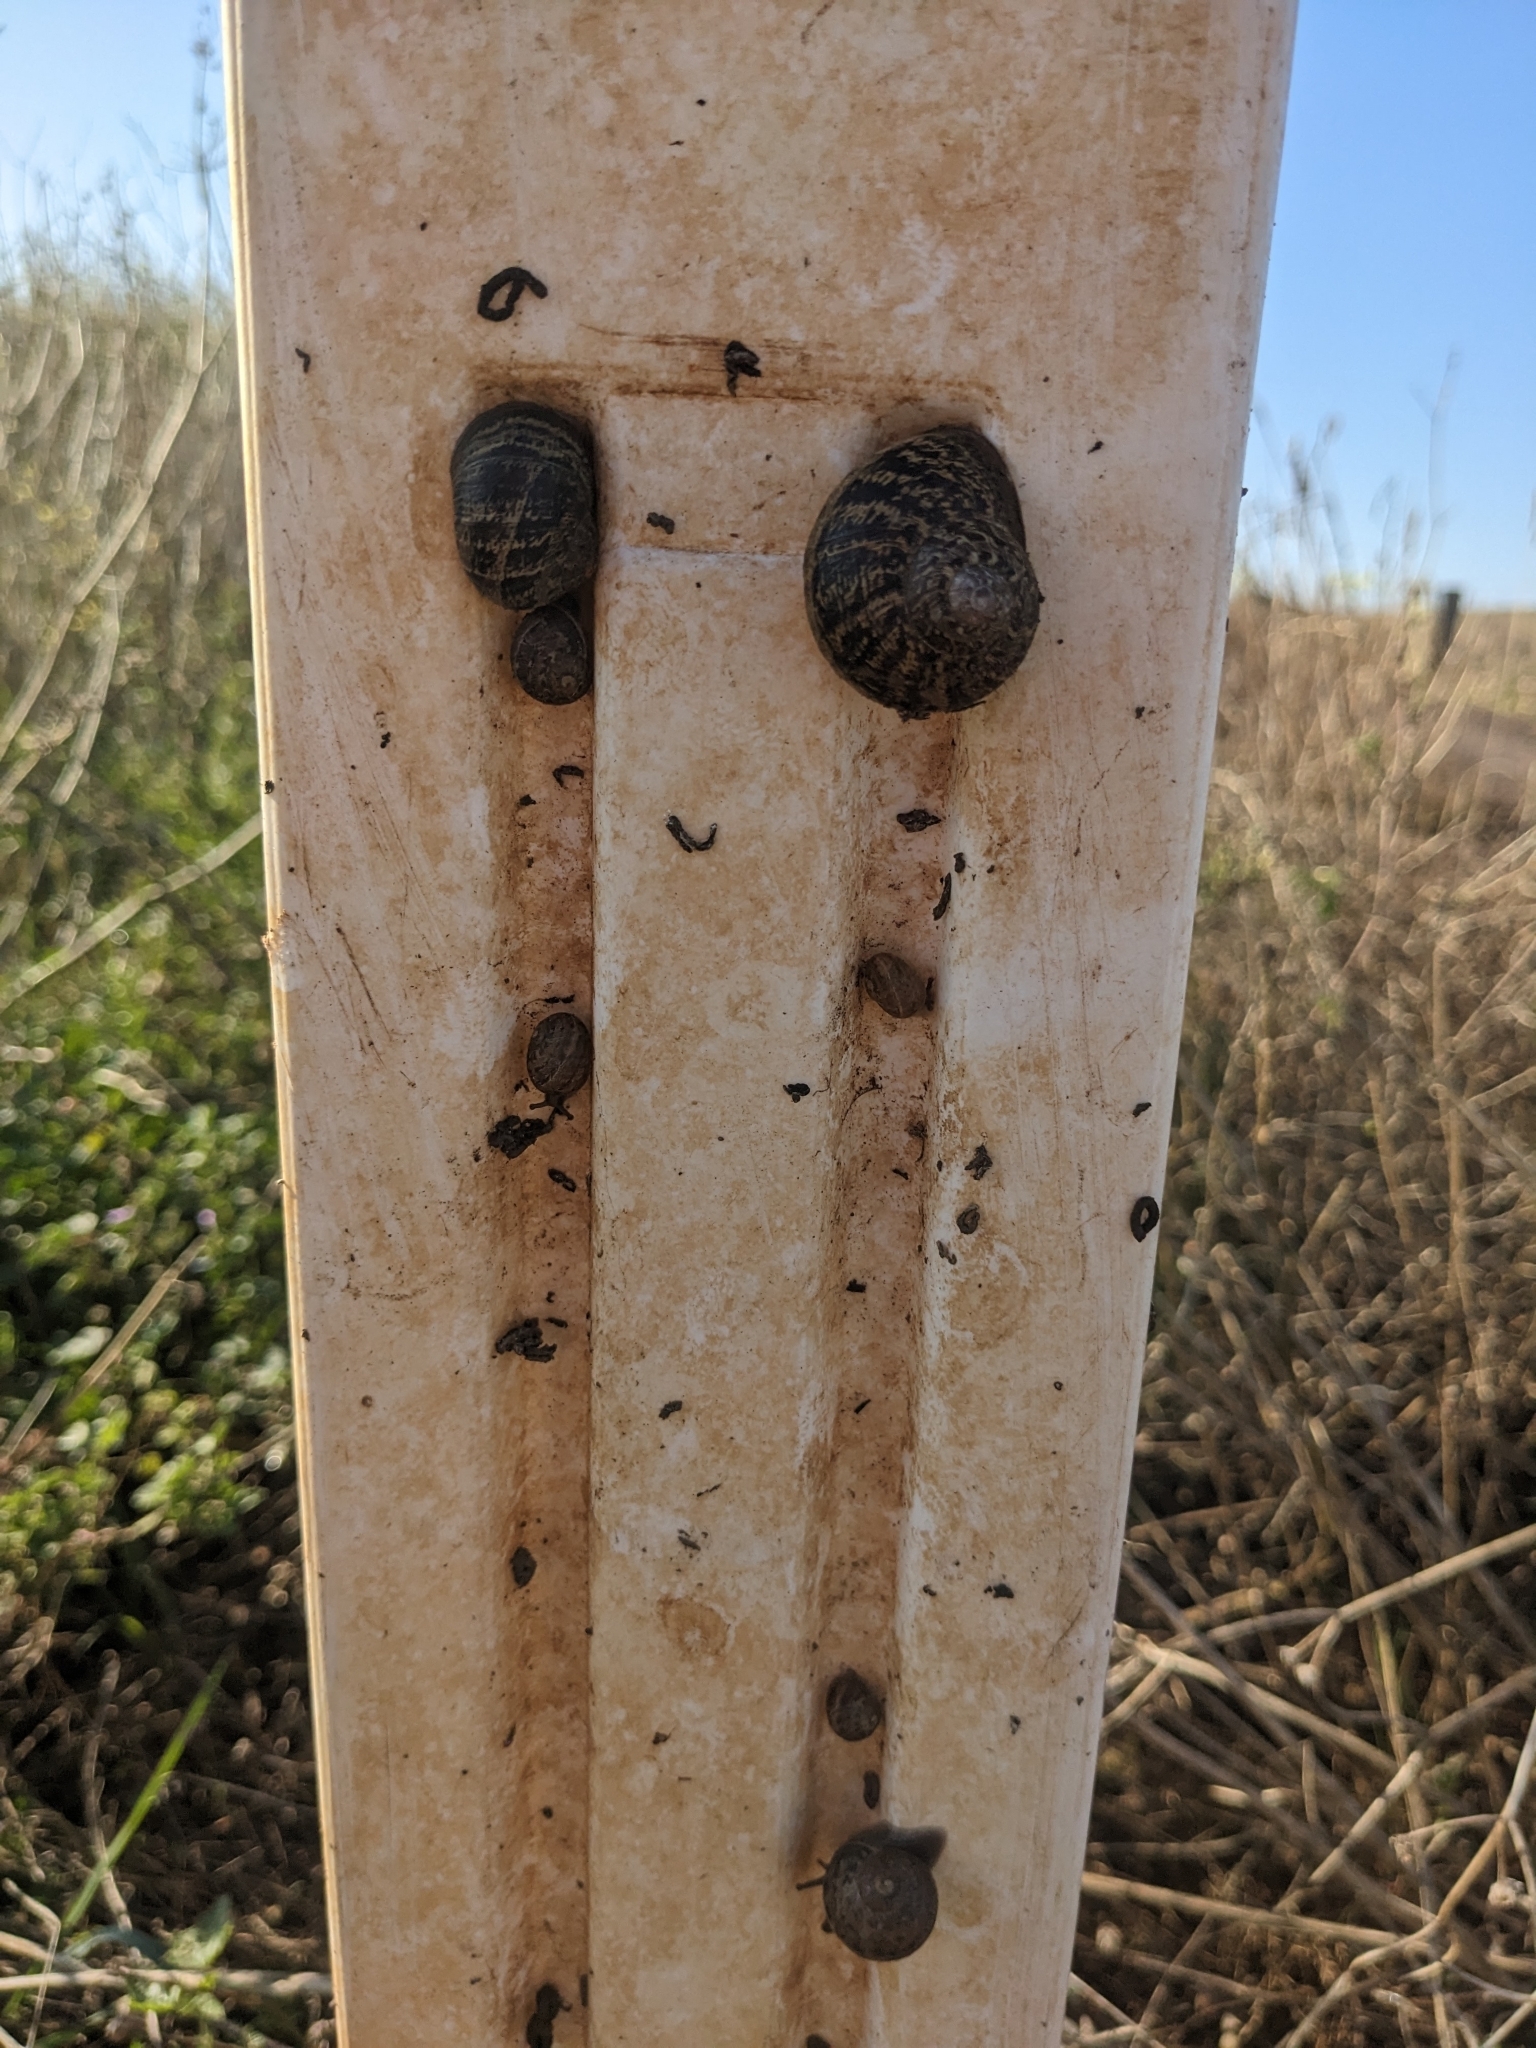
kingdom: Animalia
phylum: Mollusca
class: Gastropoda
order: Stylommatophora
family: Helicidae
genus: Cornu
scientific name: Cornu aspersum
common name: Brown garden snail
